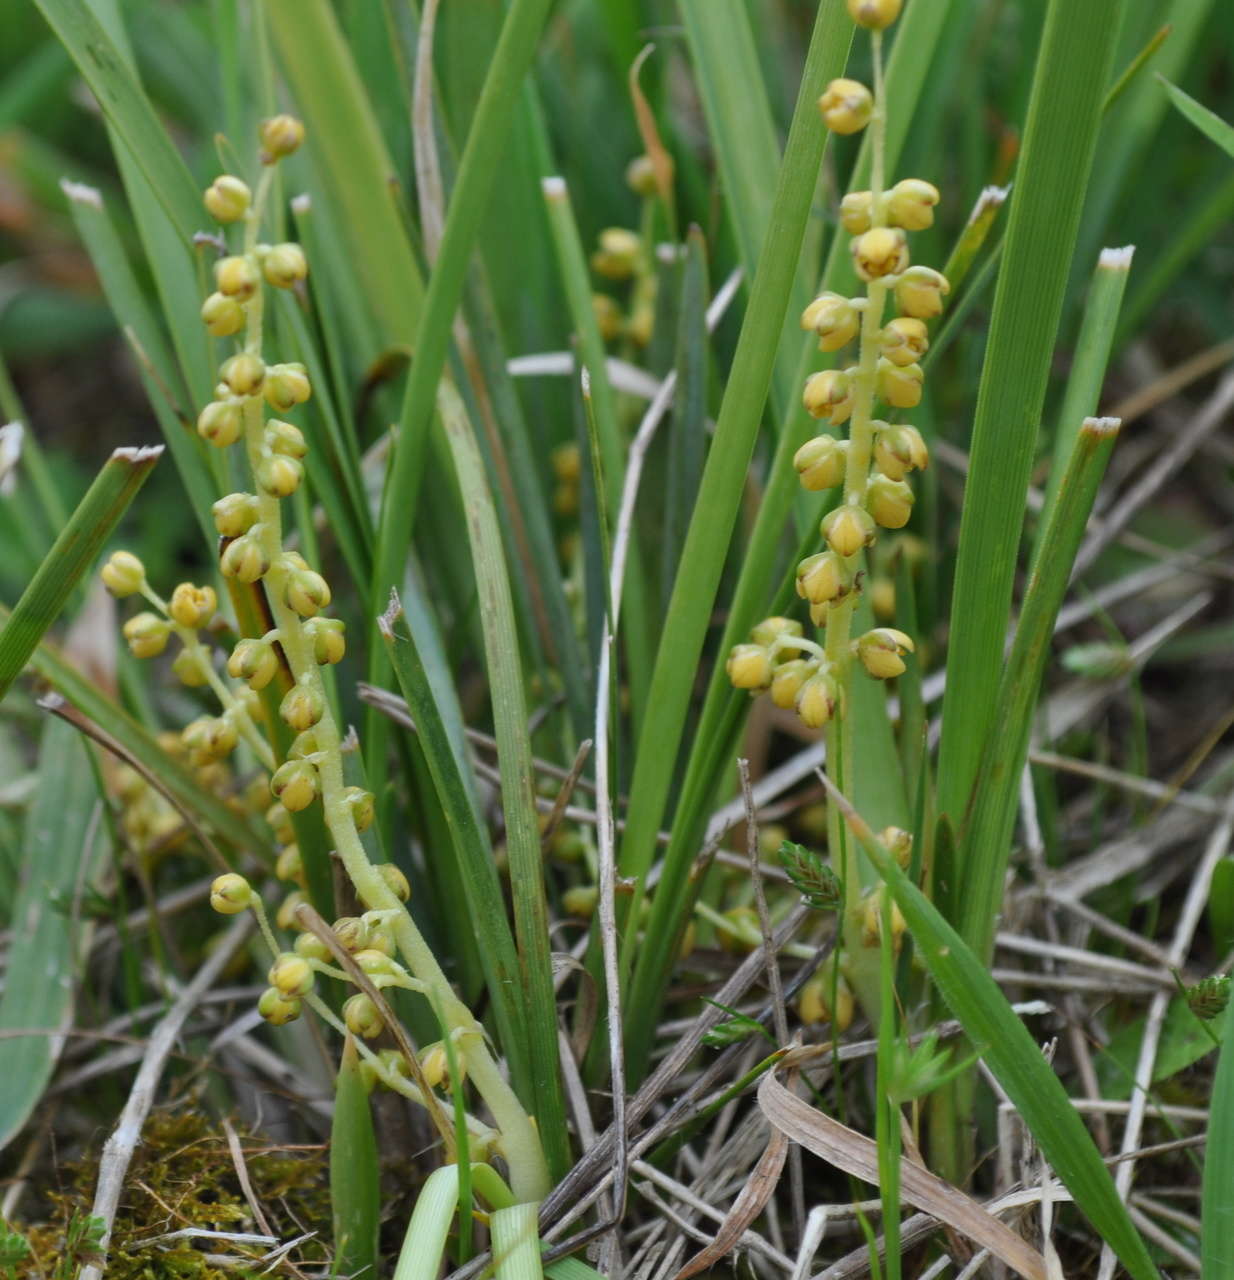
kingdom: Plantae
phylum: Tracheophyta
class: Liliopsida
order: Asparagales
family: Asparagaceae
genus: Lomandra
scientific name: Lomandra filiformis
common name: Wattle mat-rush
